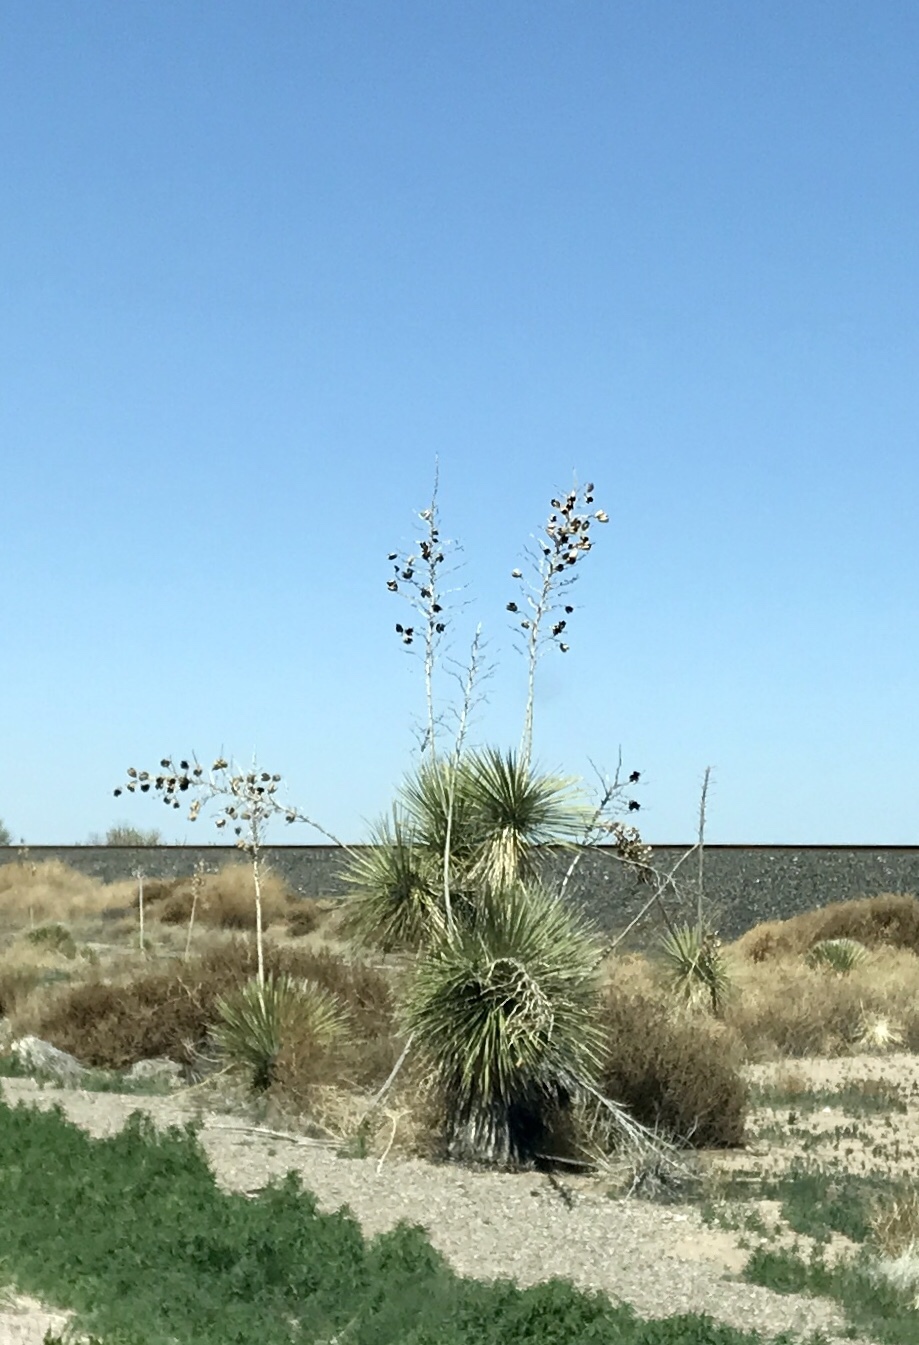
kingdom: Plantae
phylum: Tracheophyta
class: Liliopsida
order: Asparagales
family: Asparagaceae
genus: Yucca
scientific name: Yucca elata
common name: Palmella
